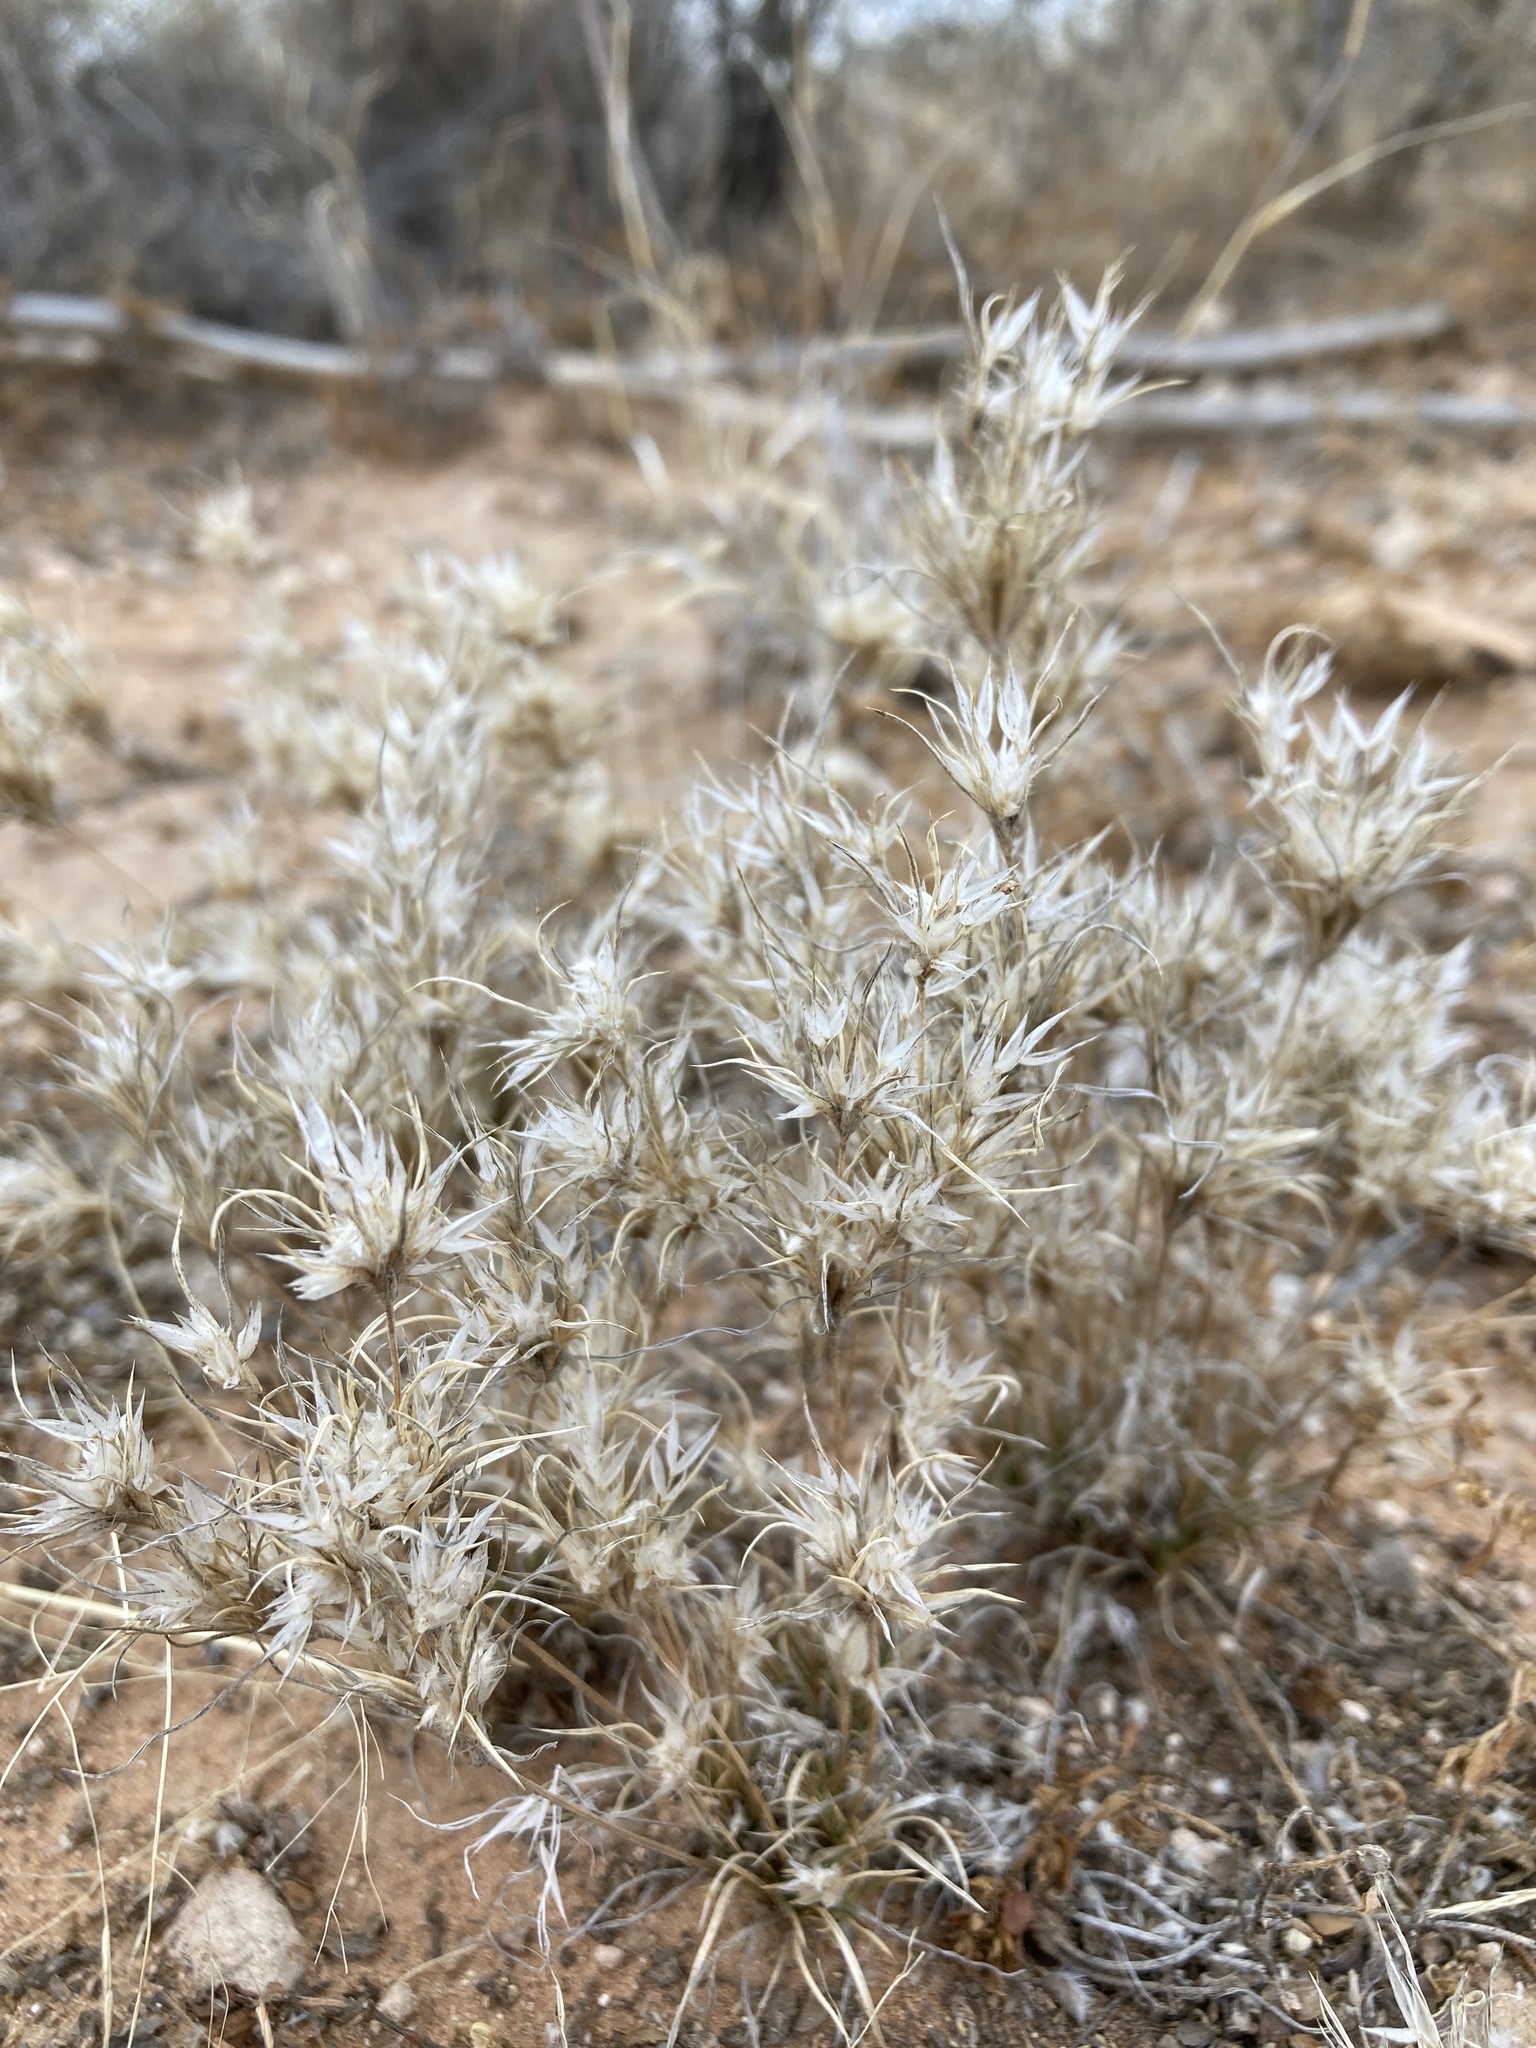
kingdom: Plantae
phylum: Tracheophyta
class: Liliopsida
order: Poales
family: Poaceae
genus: Dasyochloa
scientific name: Dasyochloa pulchella
